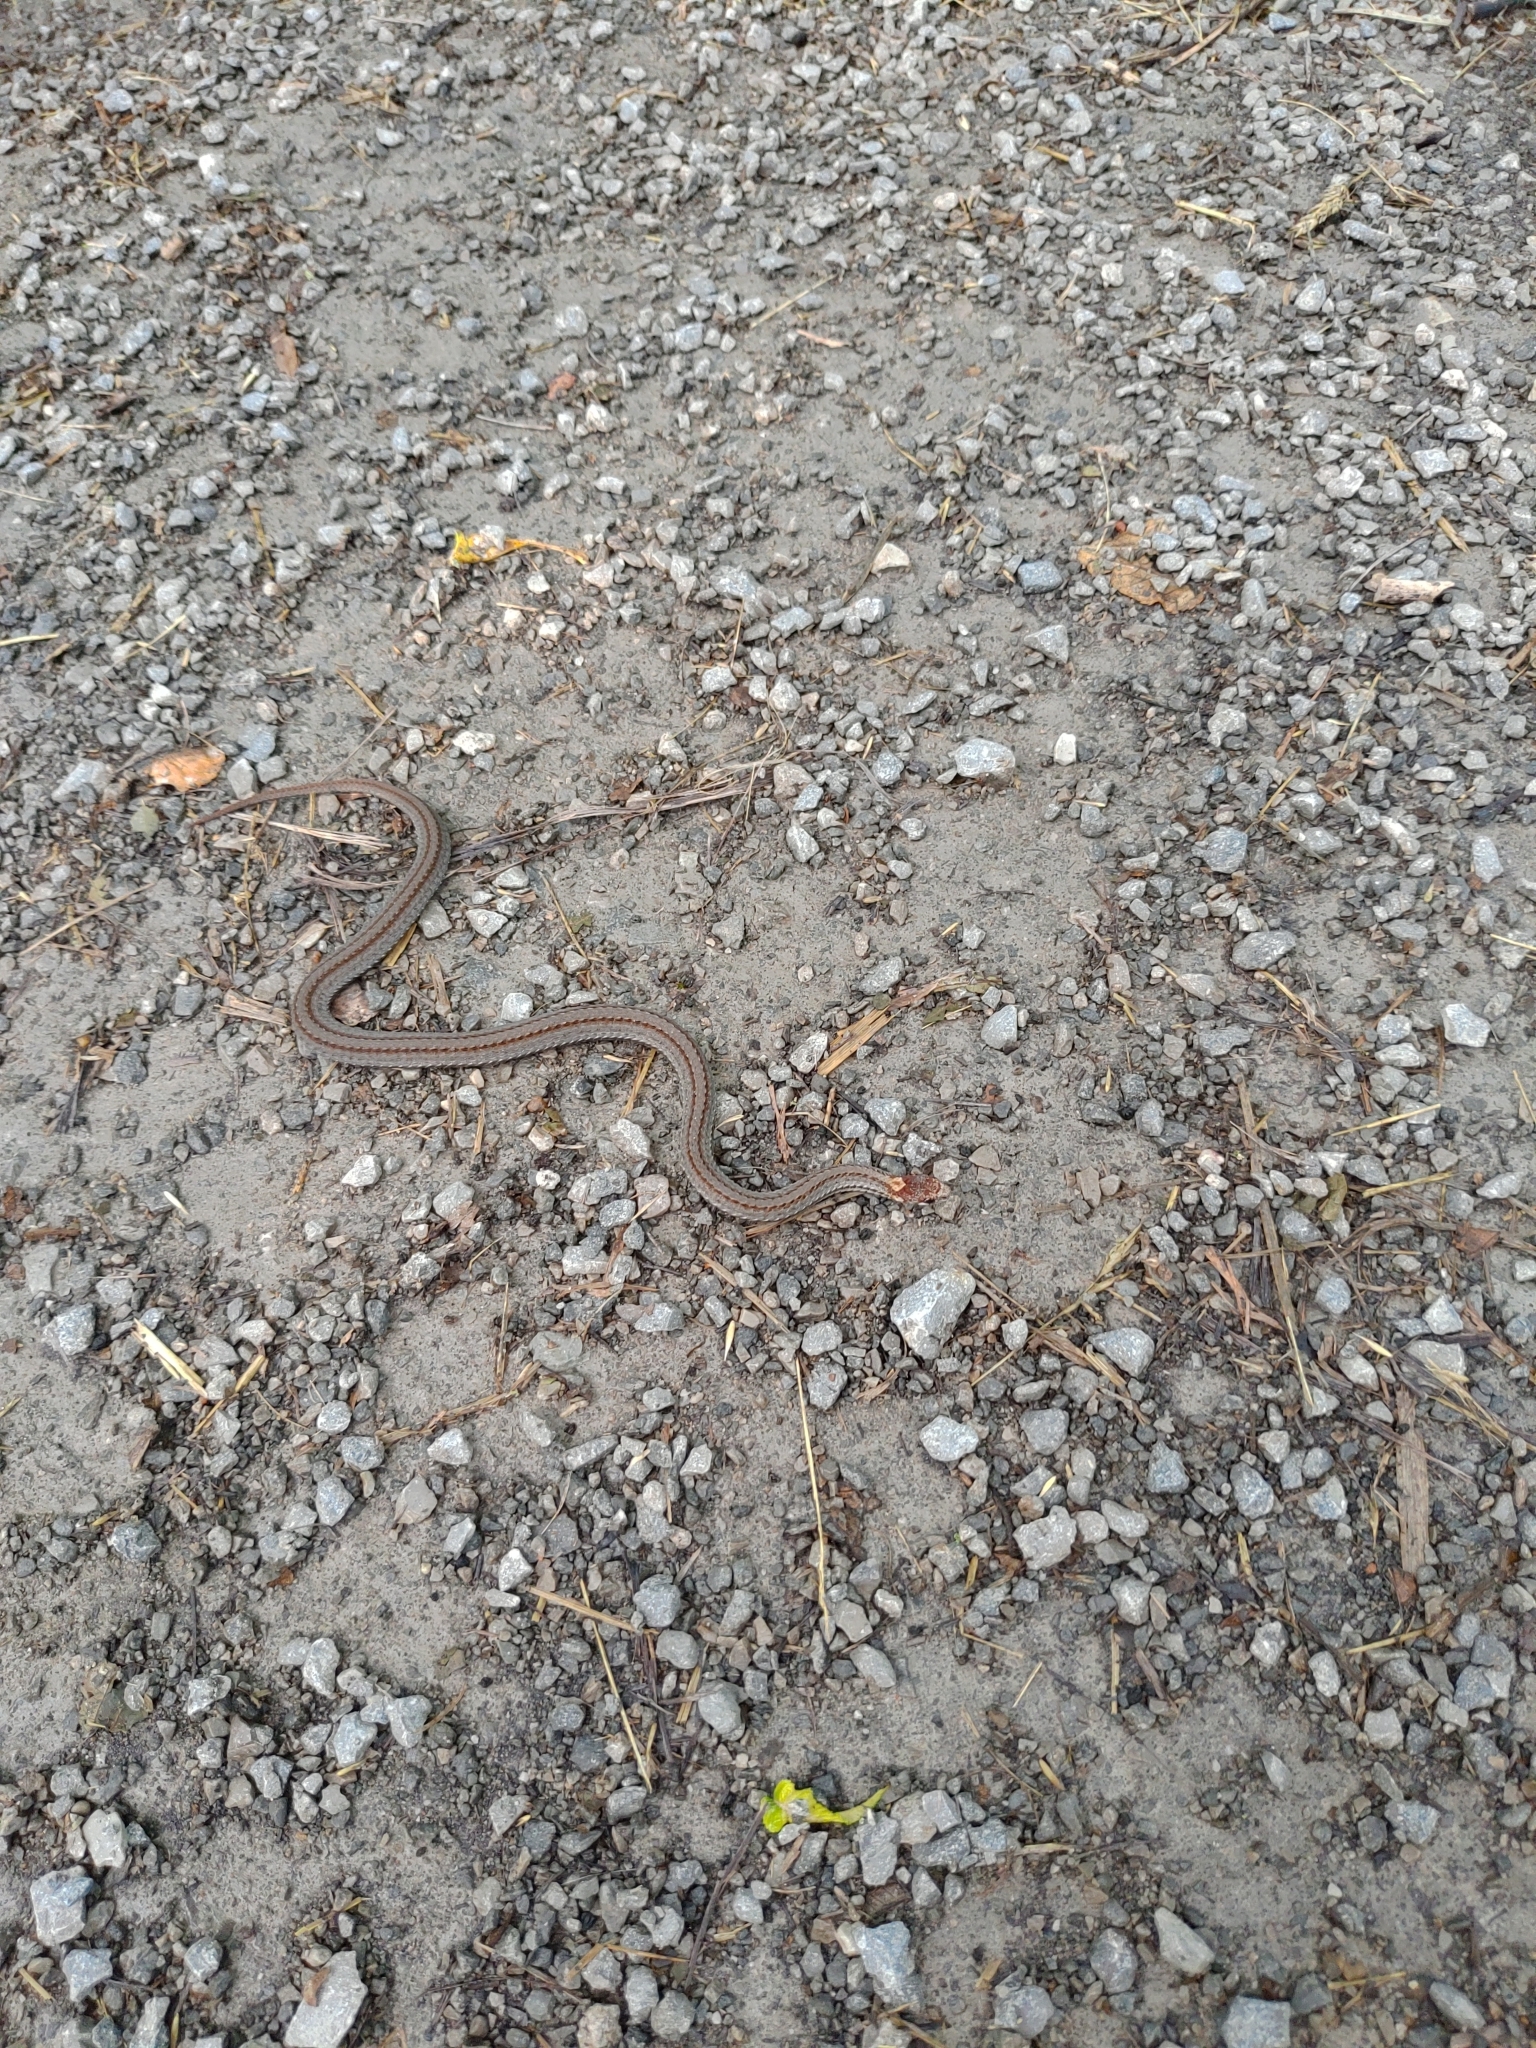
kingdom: Animalia
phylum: Chordata
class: Squamata
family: Colubridae
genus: Storeria
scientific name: Storeria occipitomaculata
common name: Redbelly snake
